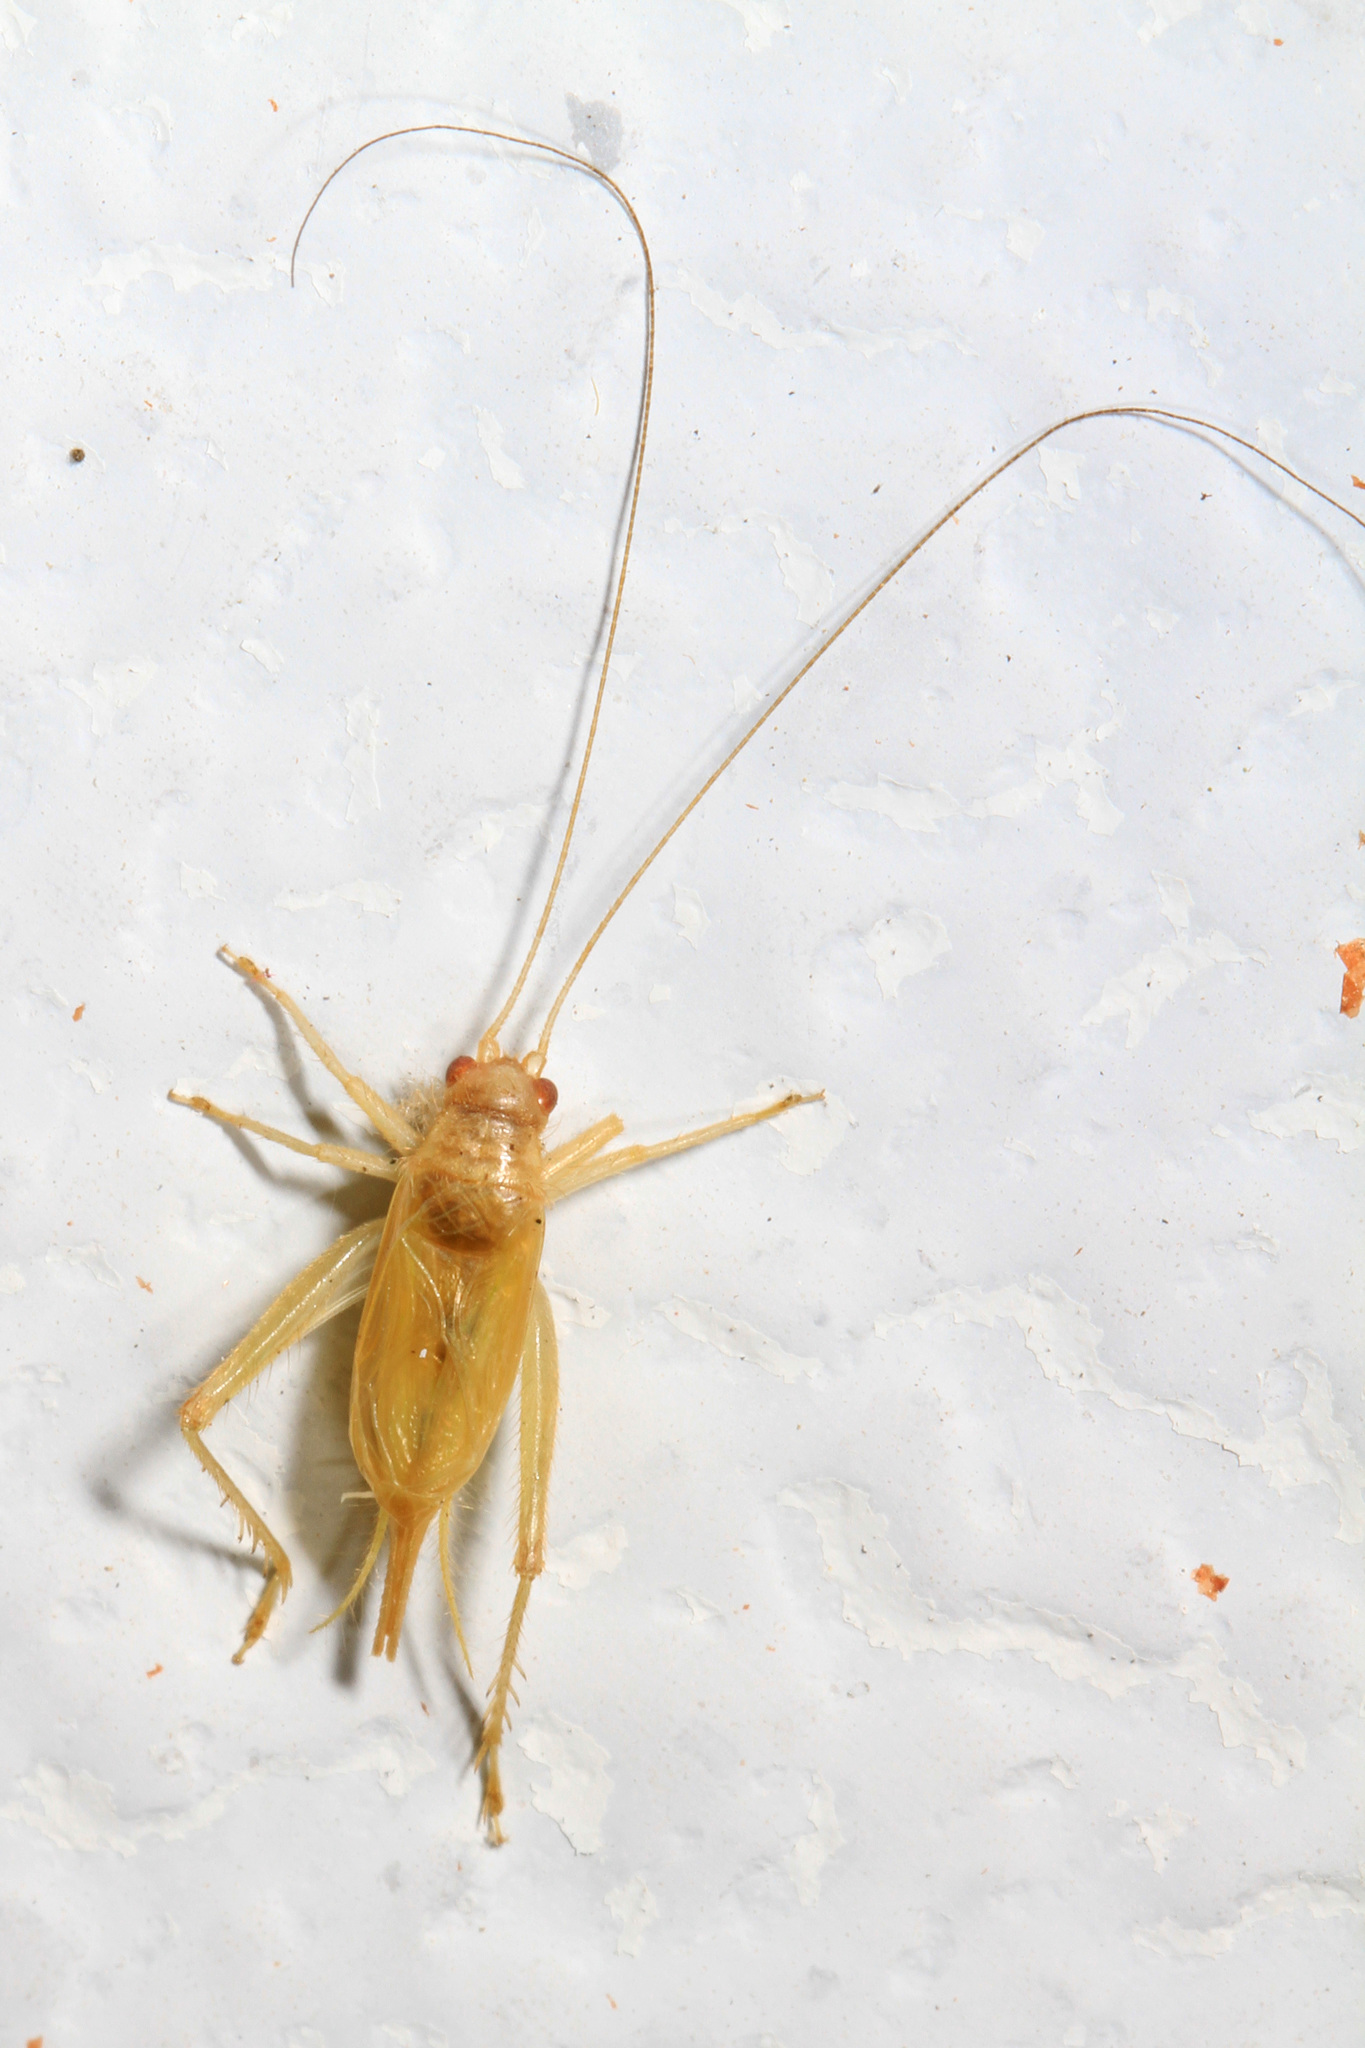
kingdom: Animalia
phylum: Arthropoda
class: Insecta
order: Orthoptera
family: Trigonidiidae
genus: Cyrtoxipha
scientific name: Cyrtoxipha columbiana
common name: Columbian trig
